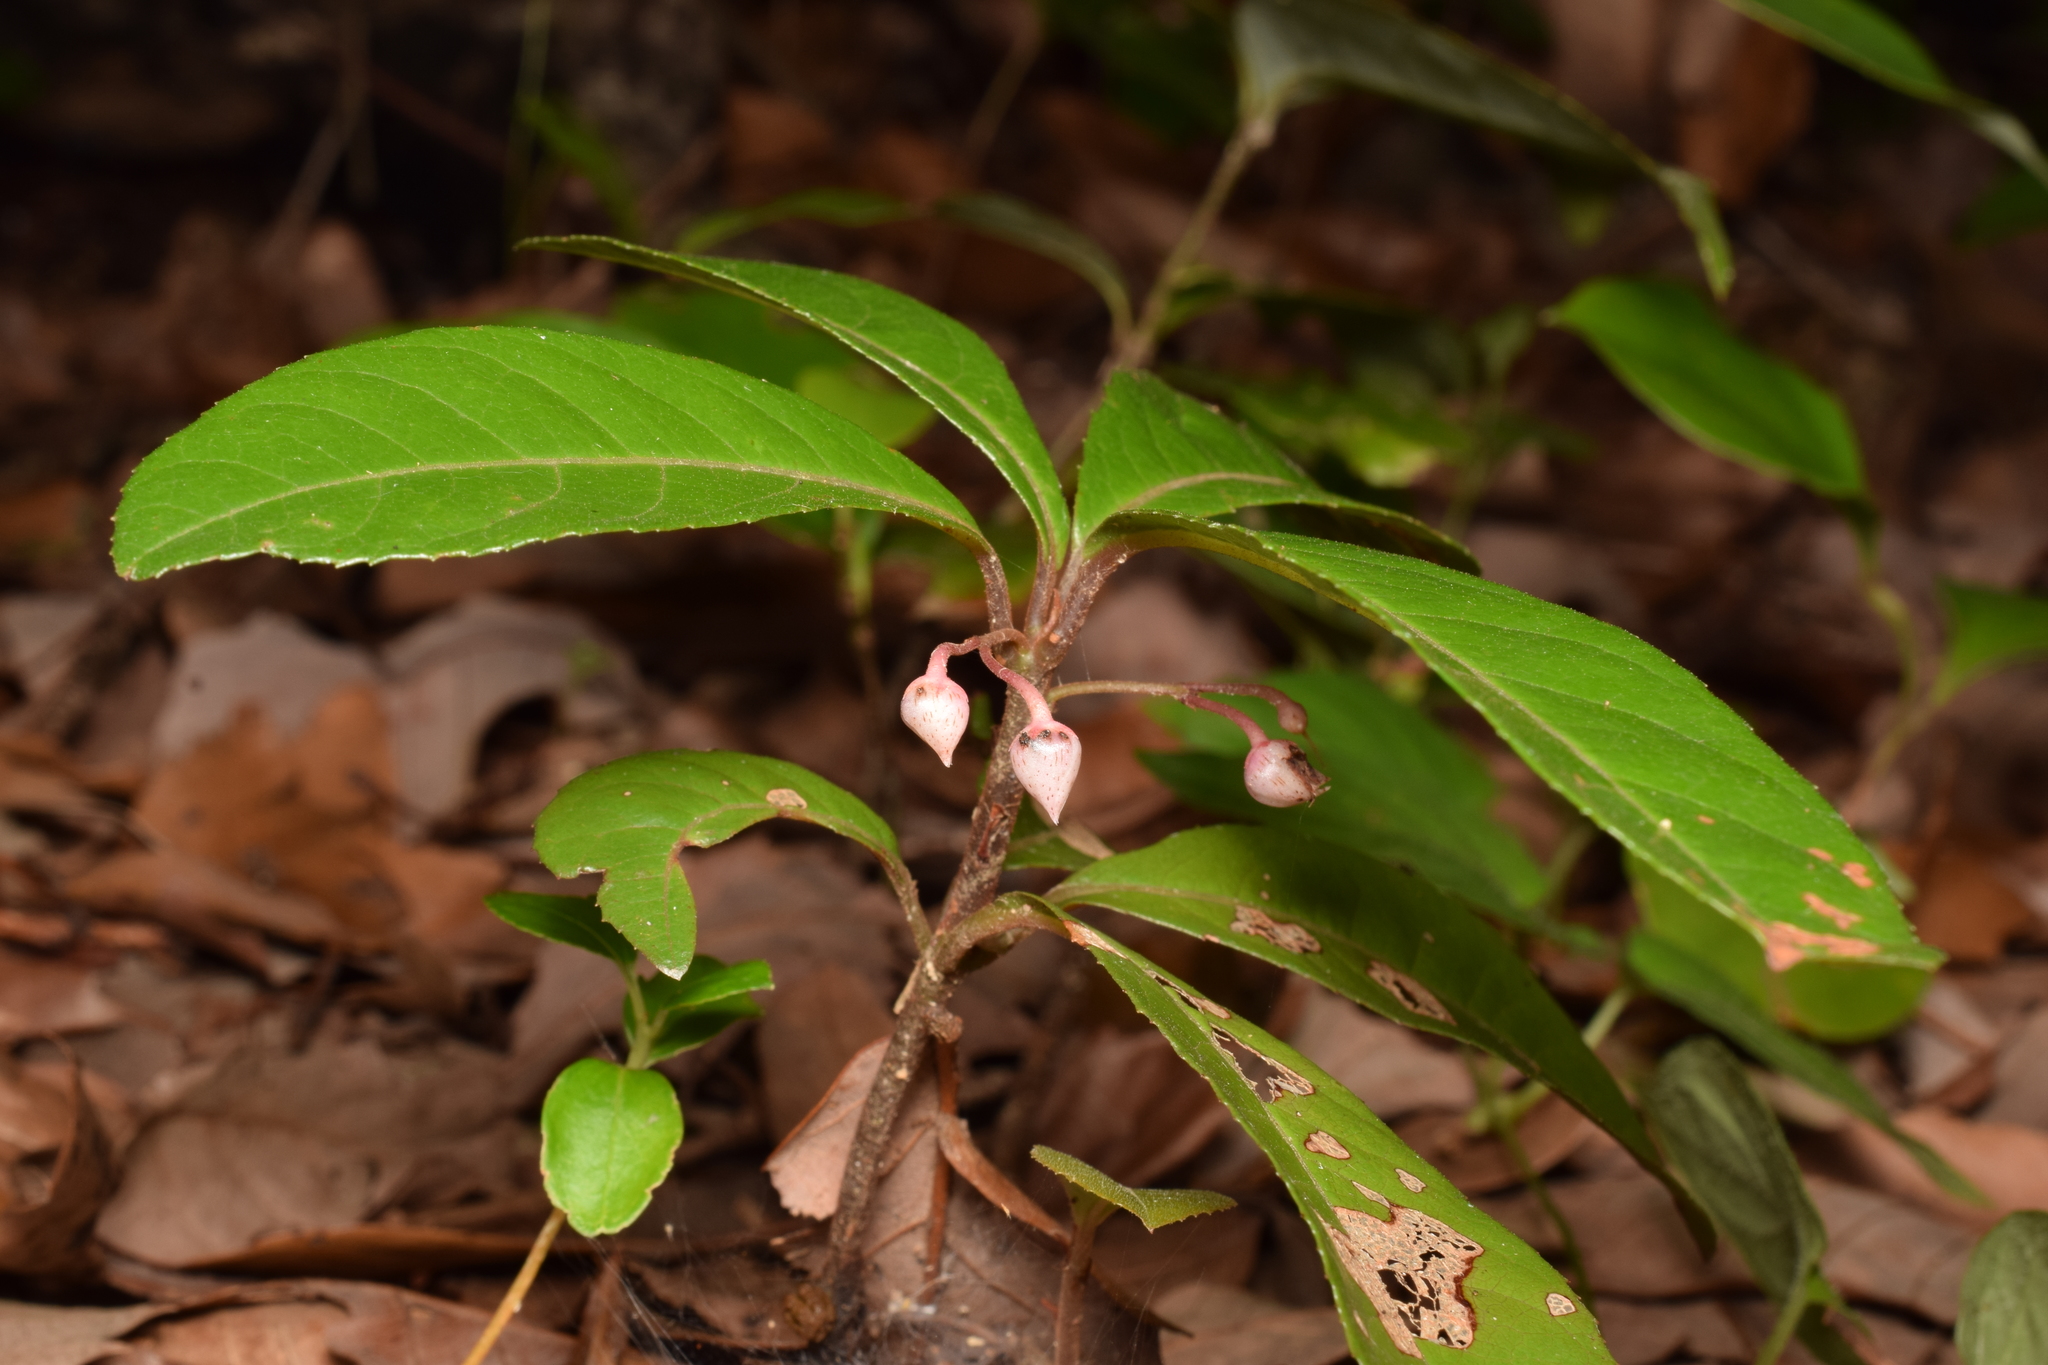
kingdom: Plantae
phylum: Tracheophyta
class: Magnoliopsida
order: Ericales
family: Primulaceae
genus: Ardisia
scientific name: Ardisia japonica
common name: Marlberry
